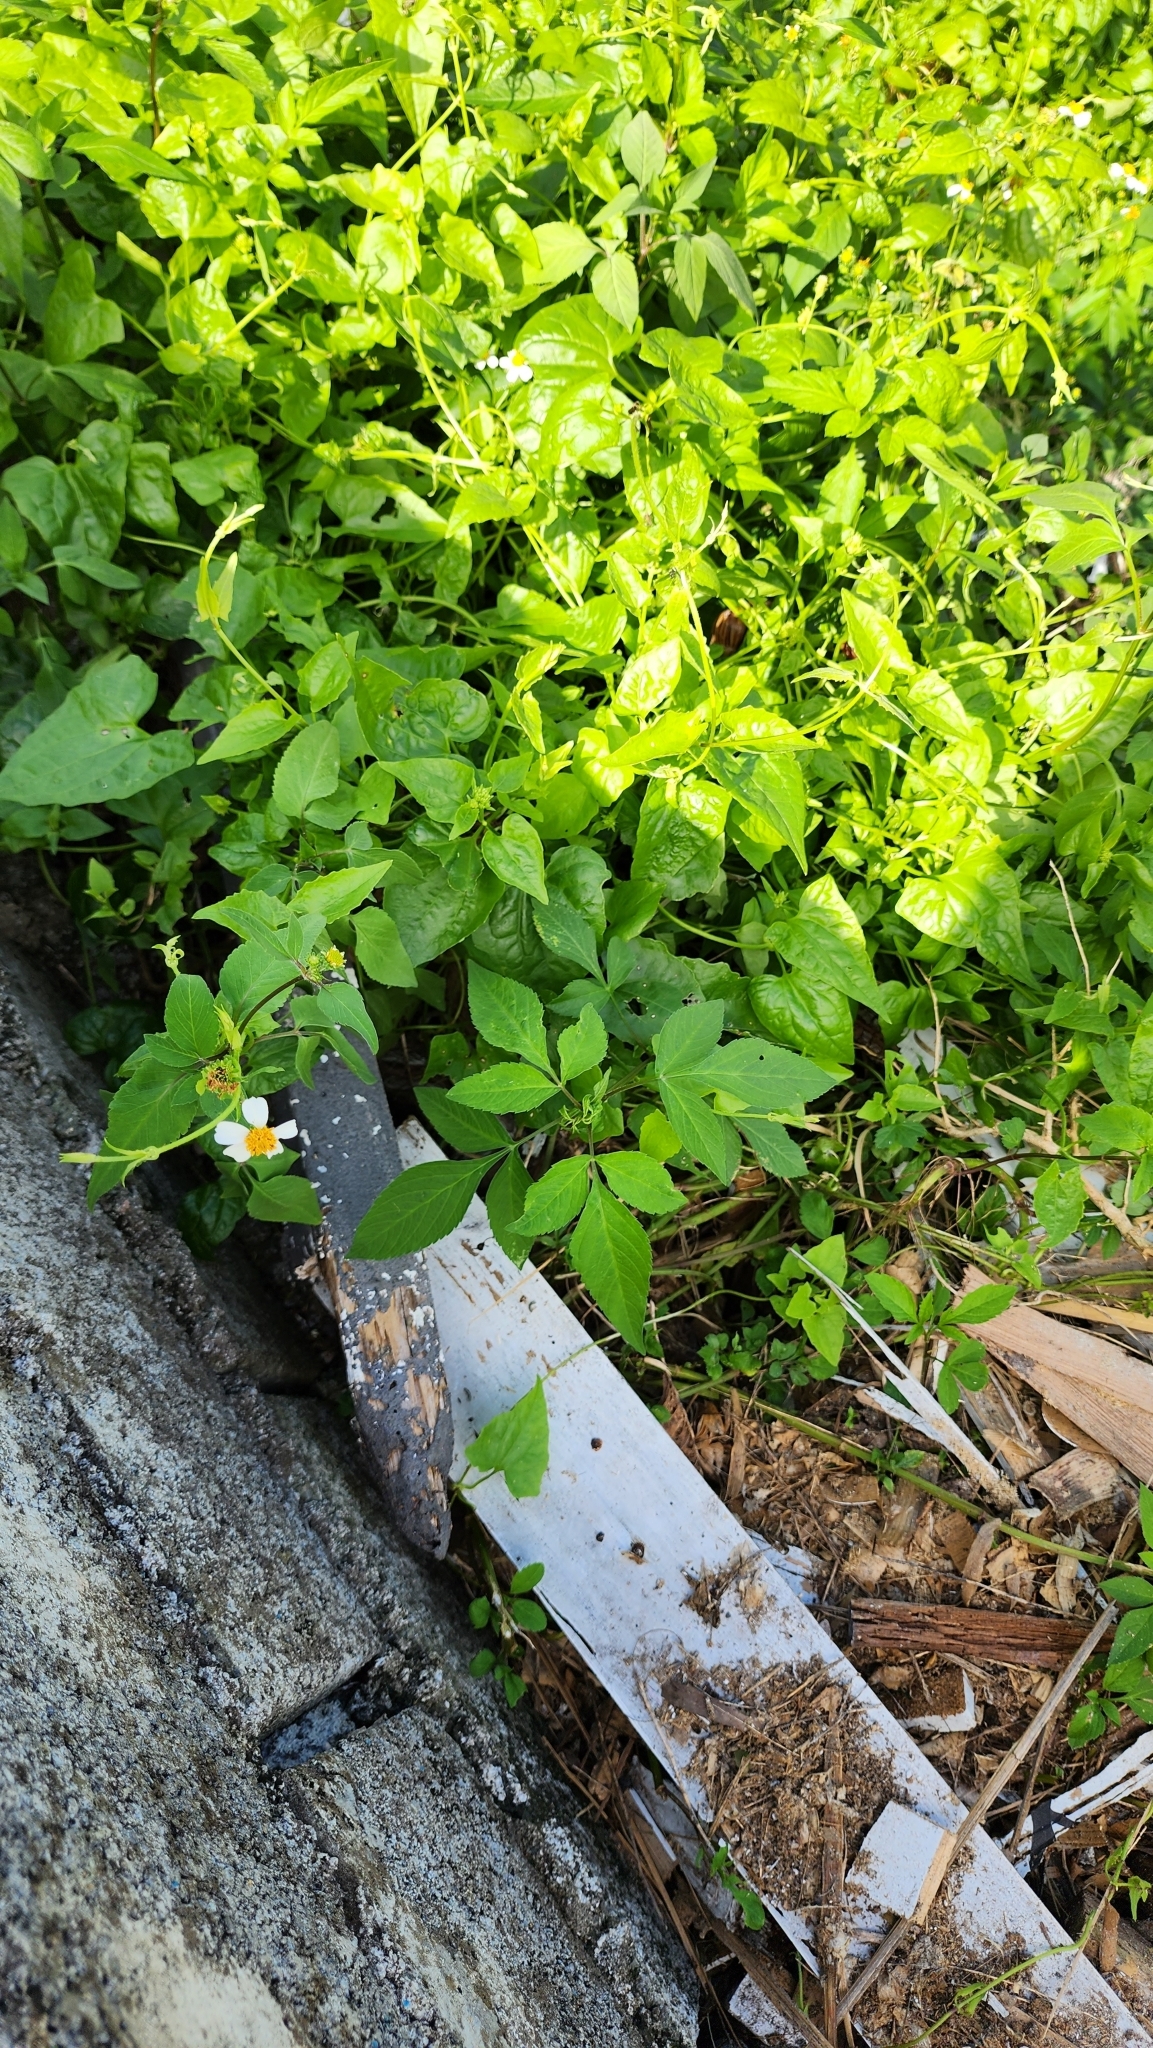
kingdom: Plantae
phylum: Tracheophyta
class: Magnoliopsida
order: Asterales
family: Asteraceae
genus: Bidens
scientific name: Bidens alba
